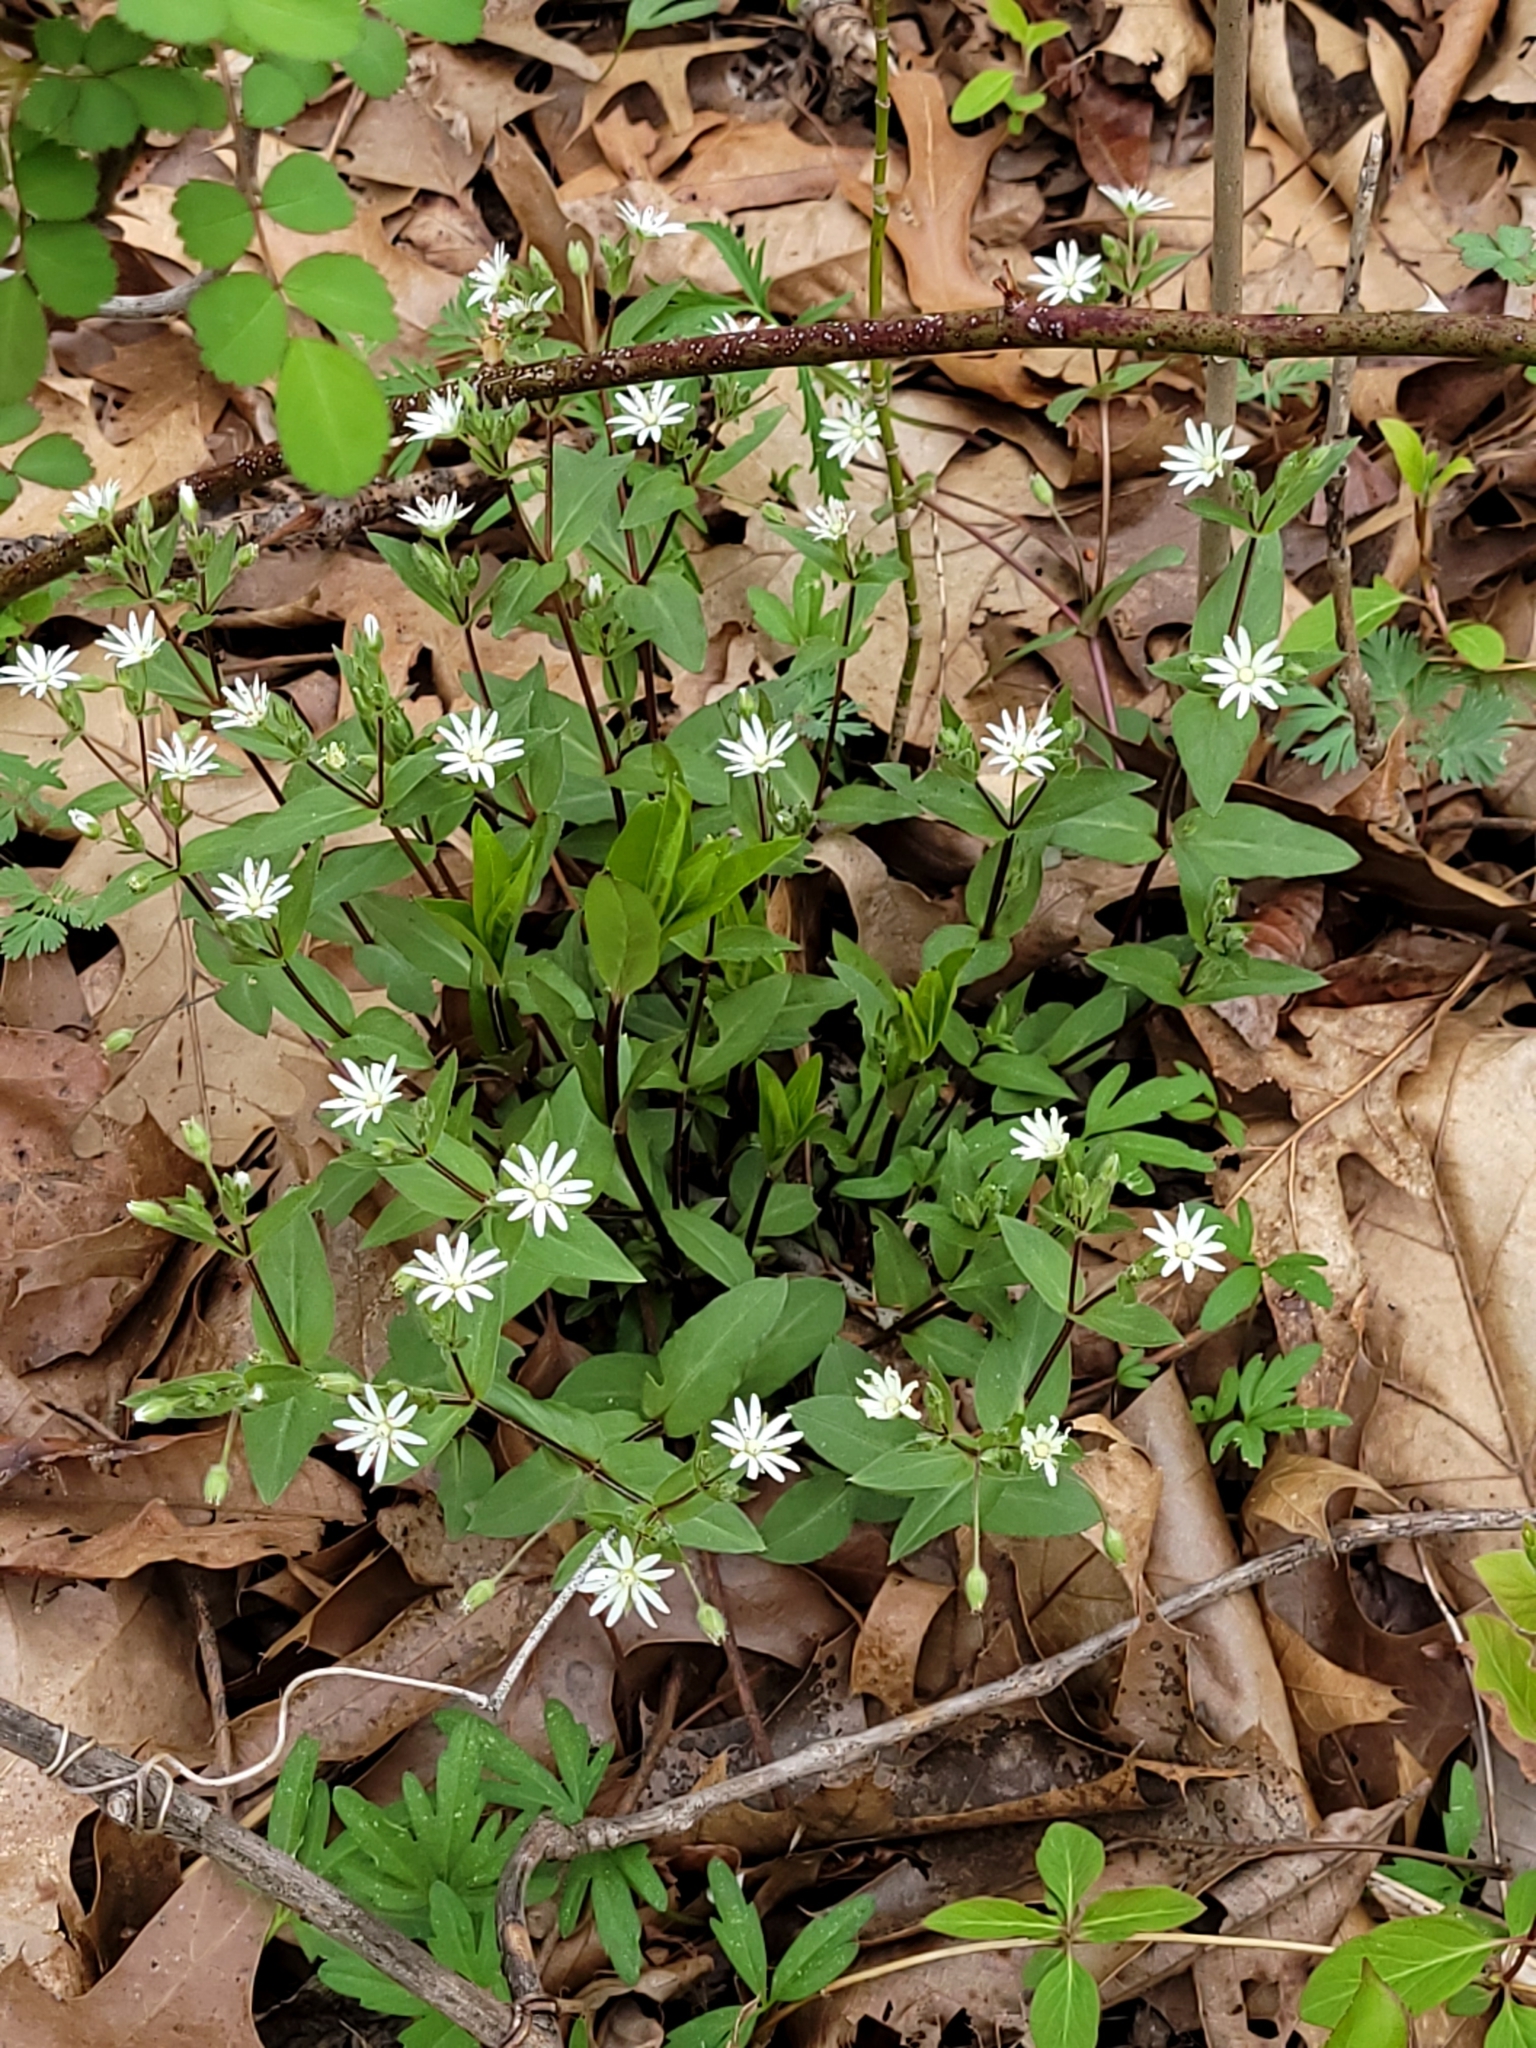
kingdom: Plantae
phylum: Tracheophyta
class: Magnoliopsida
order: Caryophyllales
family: Caryophyllaceae
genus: Stellaria
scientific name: Stellaria pubera
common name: Star chickweed
